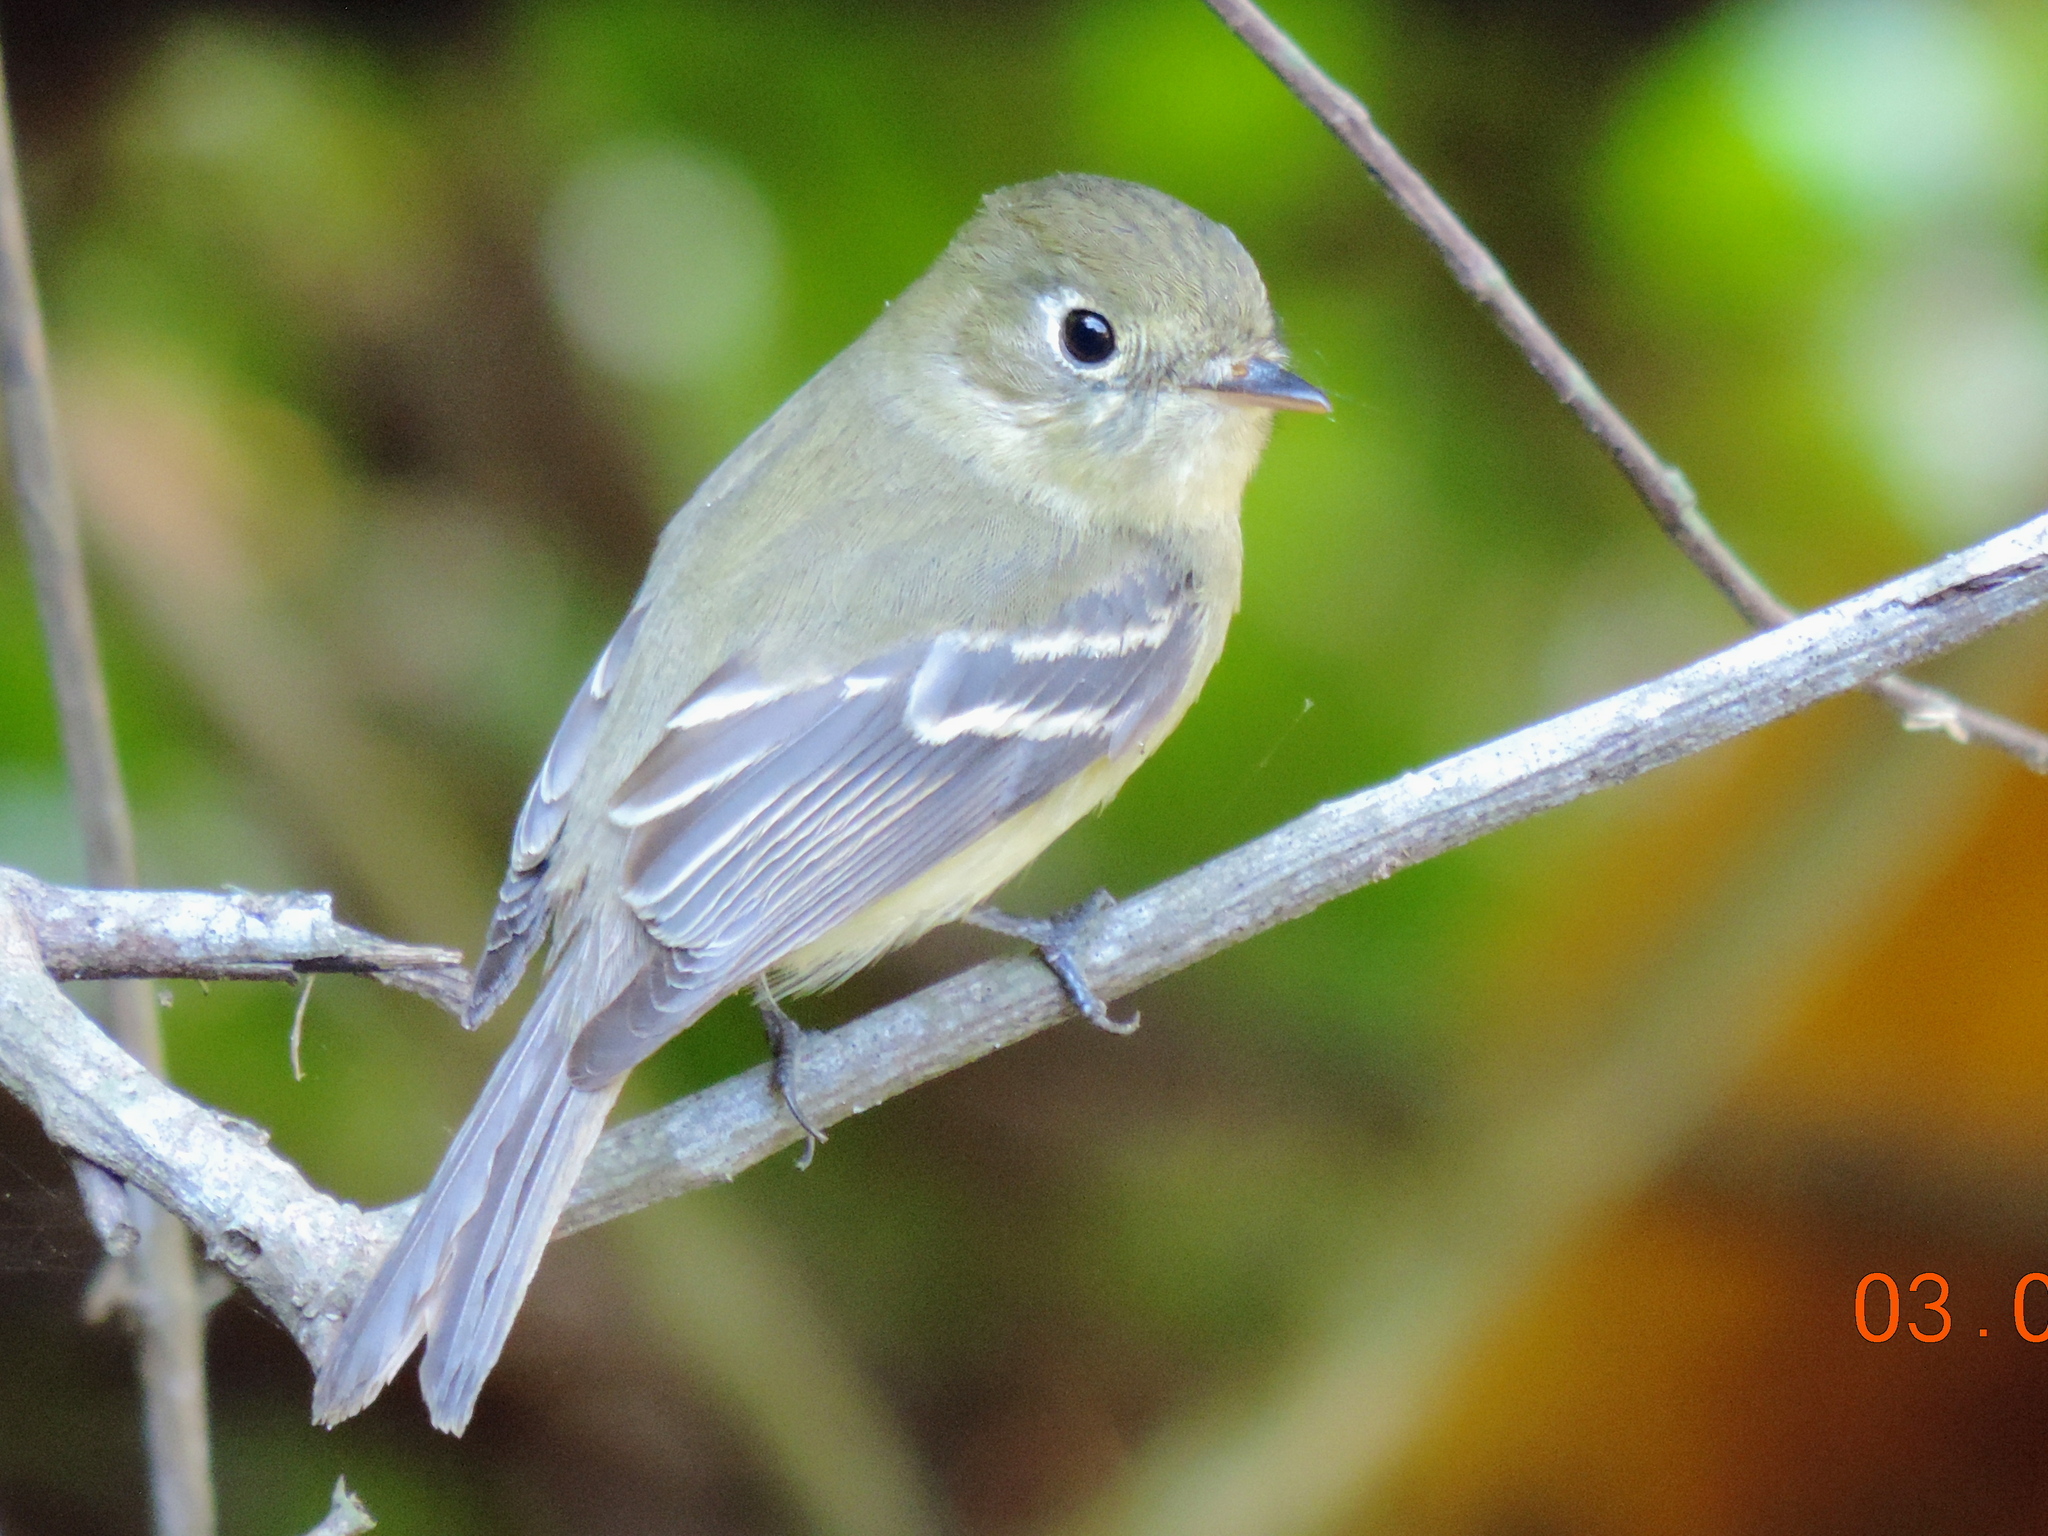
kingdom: Animalia
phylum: Chordata
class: Aves
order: Passeriformes
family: Tyrannidae
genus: Empidonax
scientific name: Empidonax
